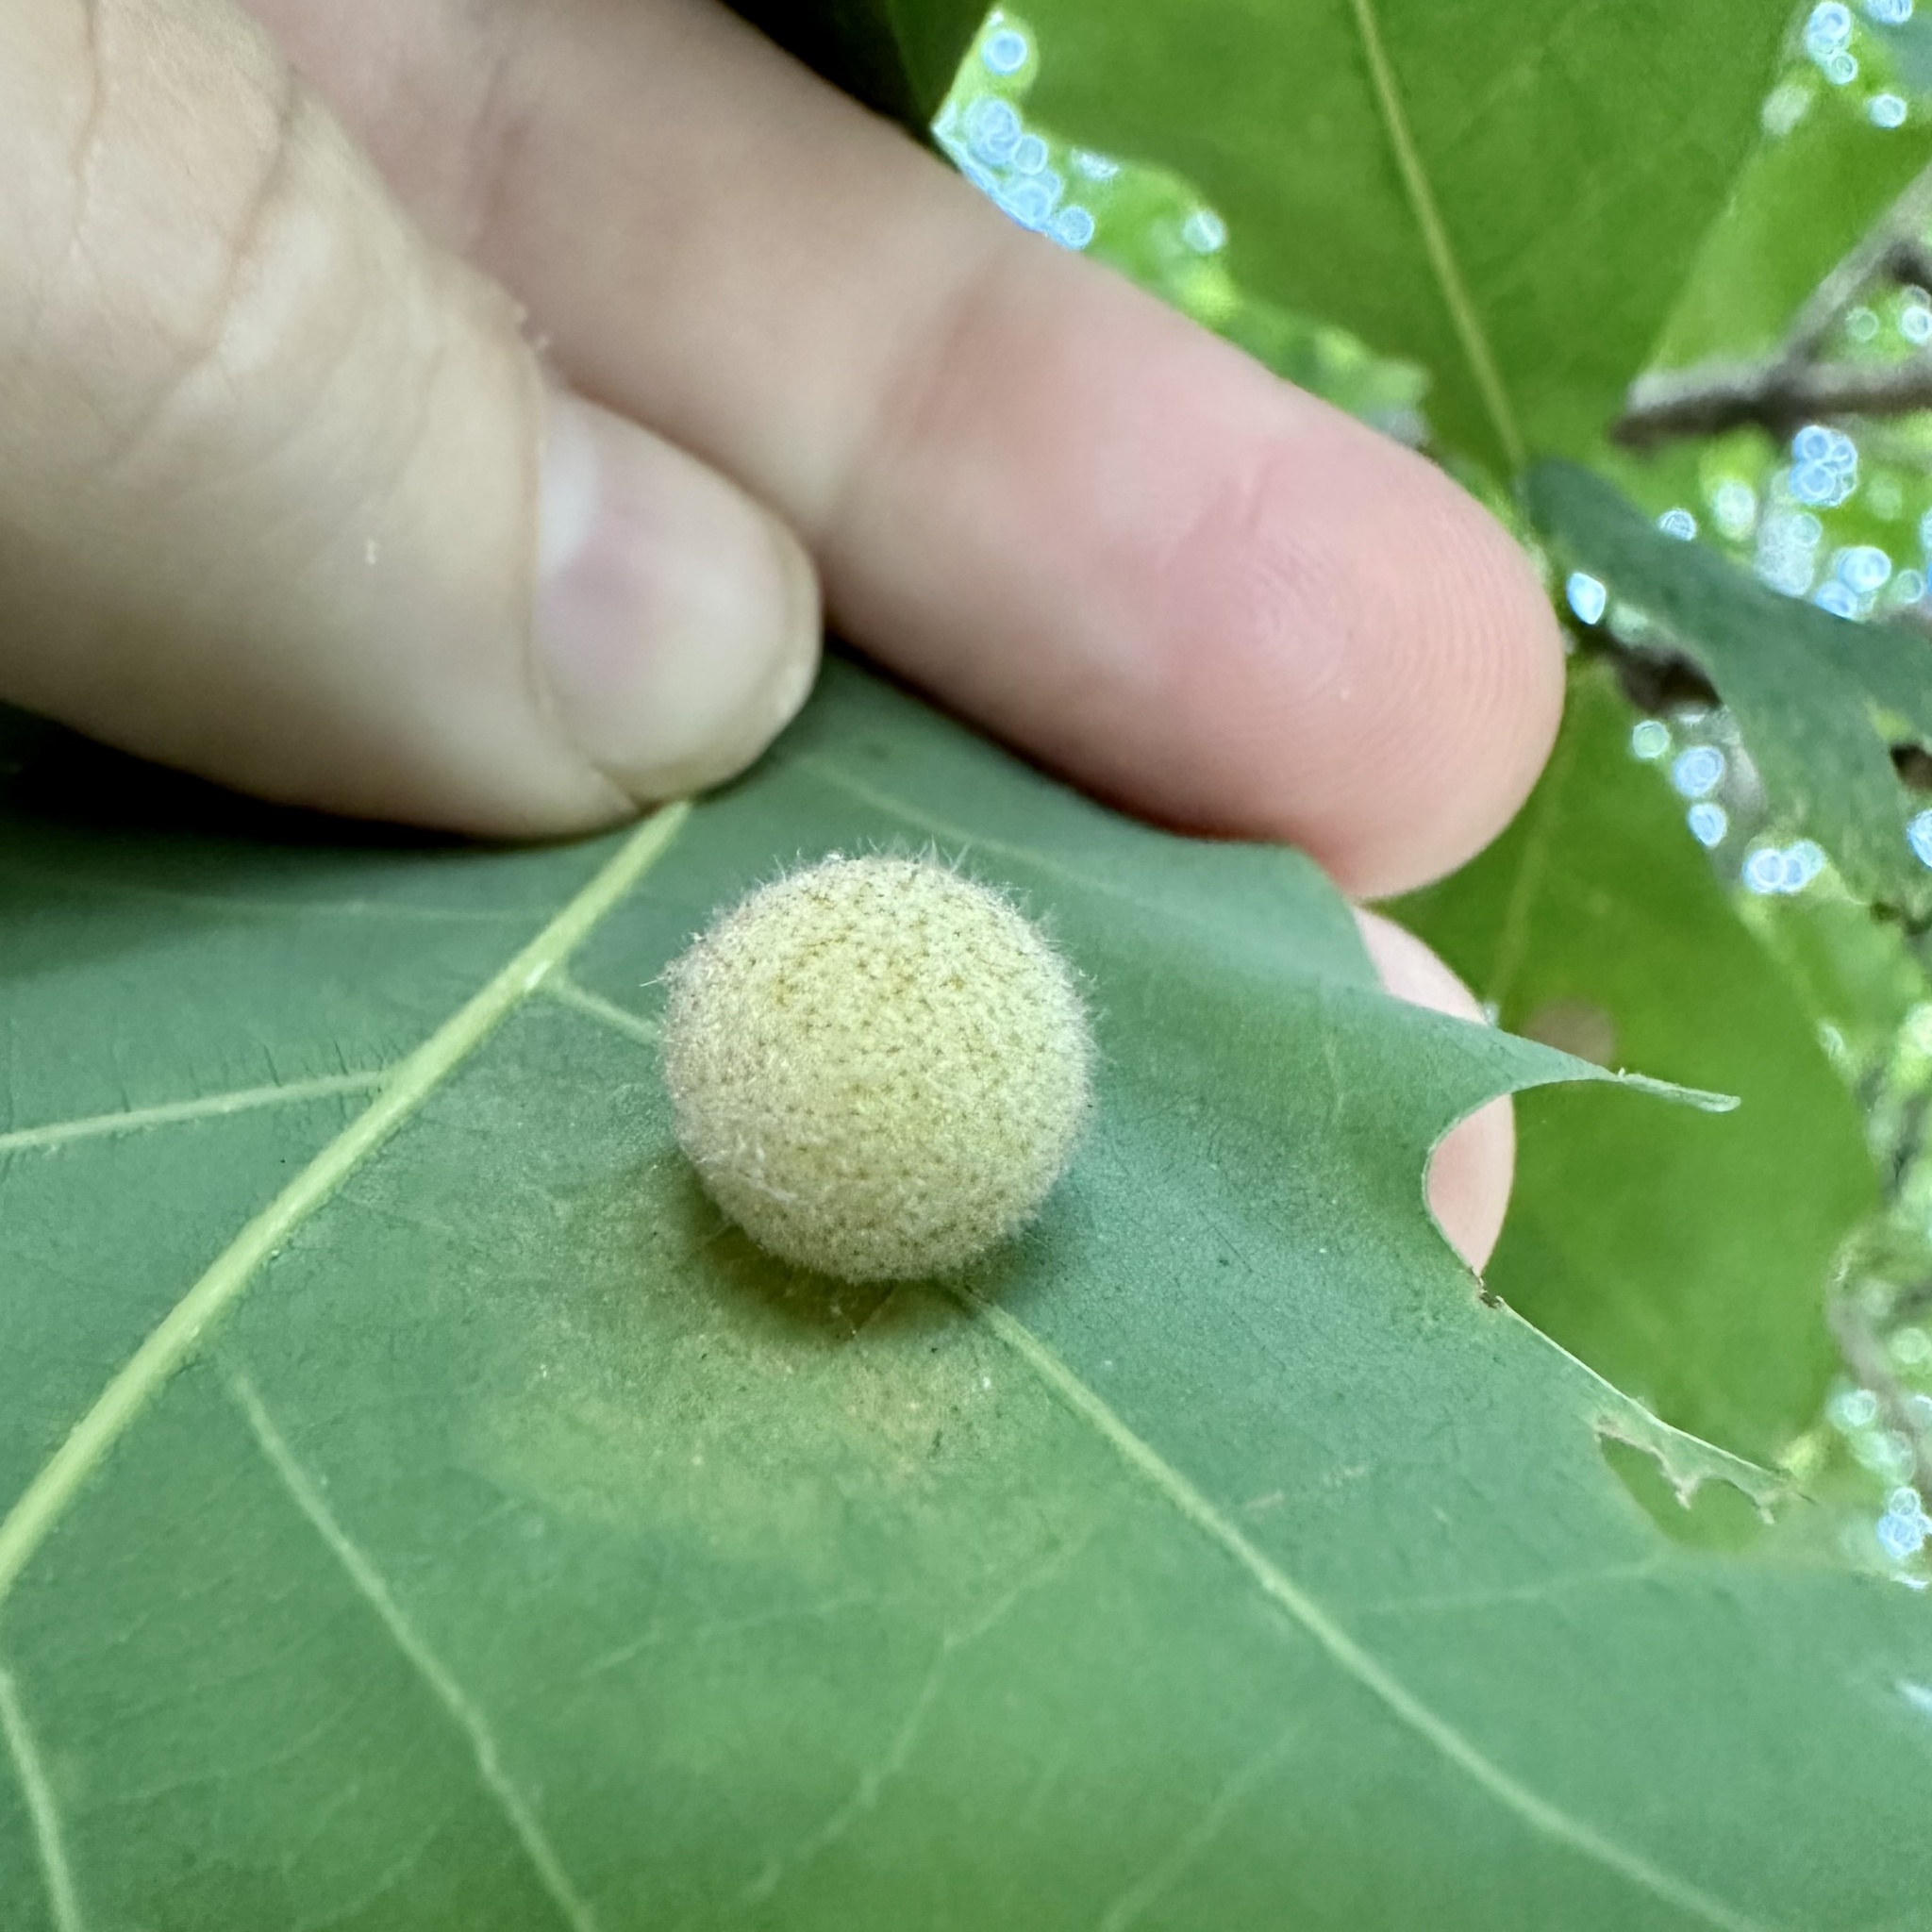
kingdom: Animalia
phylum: Arthropoda
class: Insecta
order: Hymenoptera
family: Cynipidae
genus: Philonix
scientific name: Philonix fulvicollis
